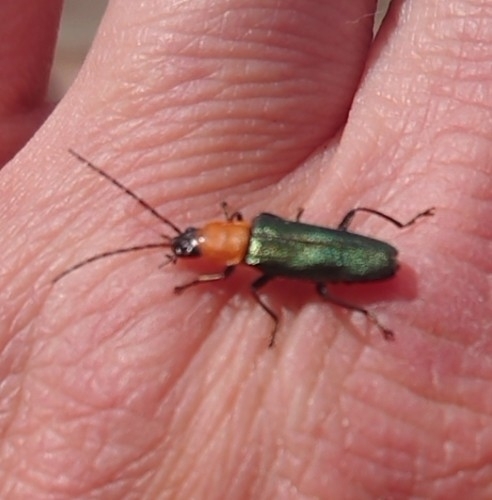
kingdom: Animalia
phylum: Arthropoda
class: Insecta
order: Coleoptera
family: Cantharidae
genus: Chauliognathus
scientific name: Chauliognathus
